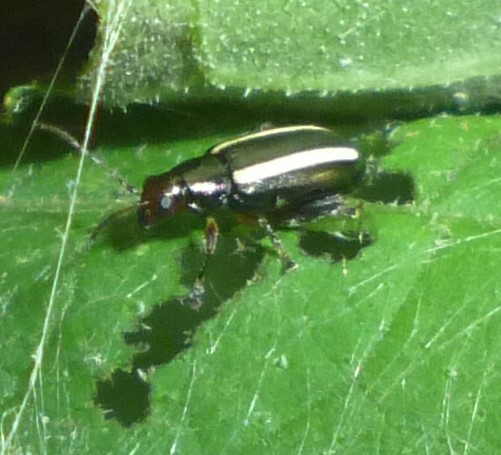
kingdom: Animalia
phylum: Arthropoda
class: Insecta
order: Coleoptera
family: Chrysomelidae
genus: Systena
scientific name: Systena elongata
